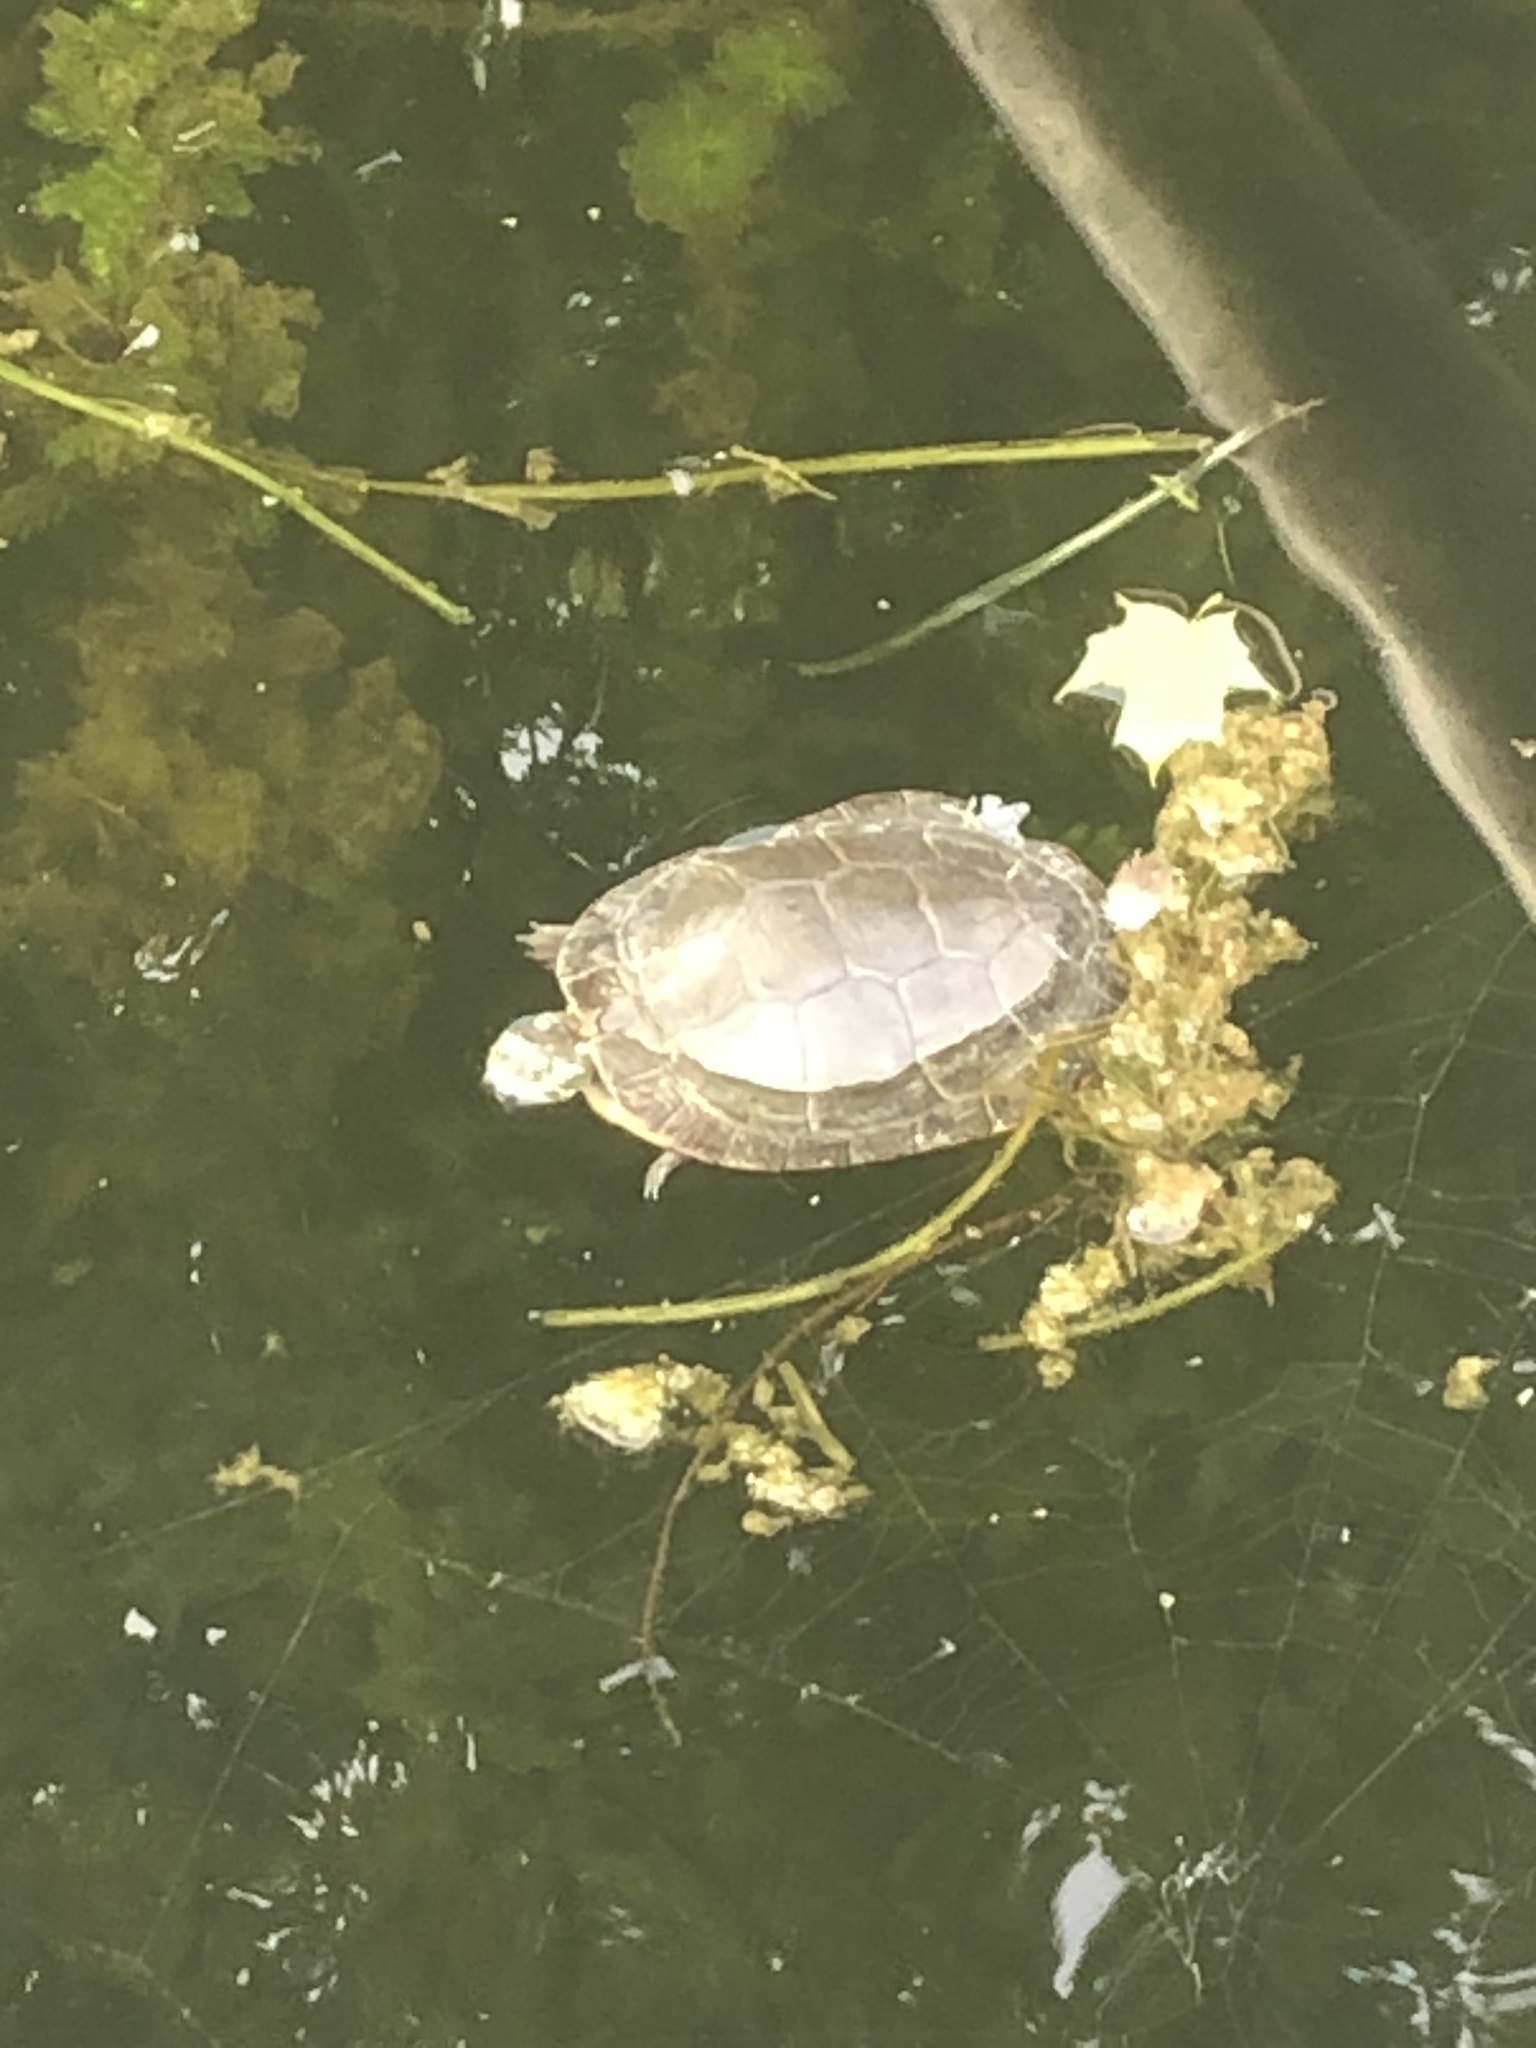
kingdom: Animalia
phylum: Chordata
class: Testudines
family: Emydidae
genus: Chrysemys
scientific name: Chrysemys picta
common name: Painted turtle
